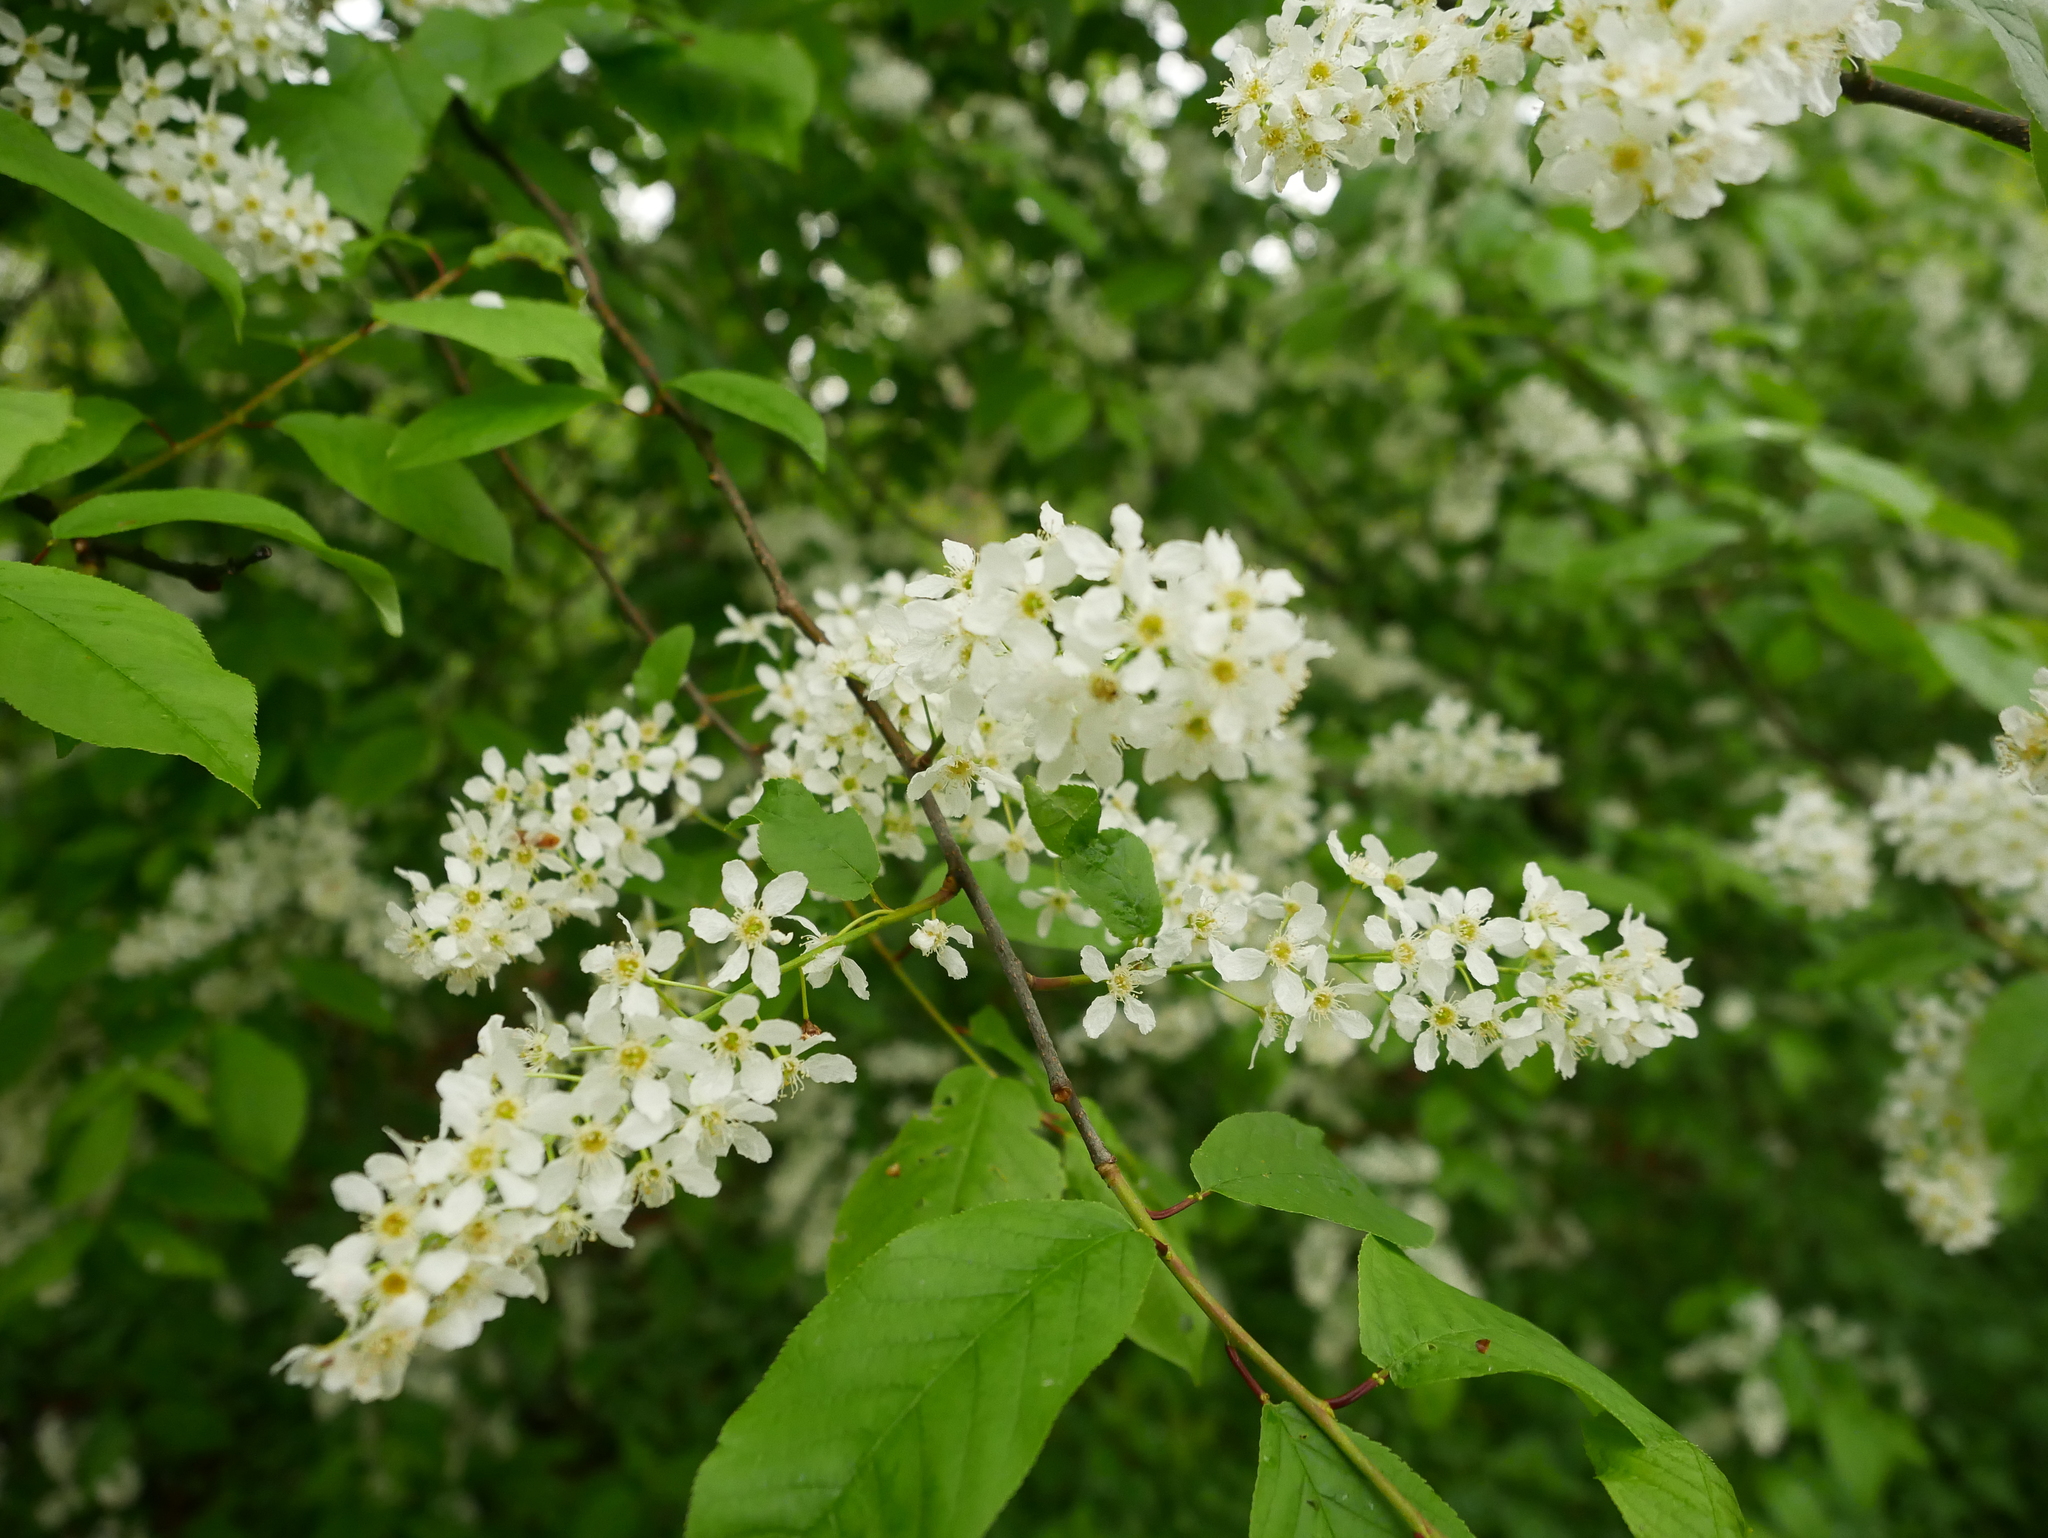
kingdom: Plantae
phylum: Tracheophyta
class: Magnoliopsida
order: Rosales
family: Rosaceae
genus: Prunus
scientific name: Prunus padus
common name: Bird cherry
